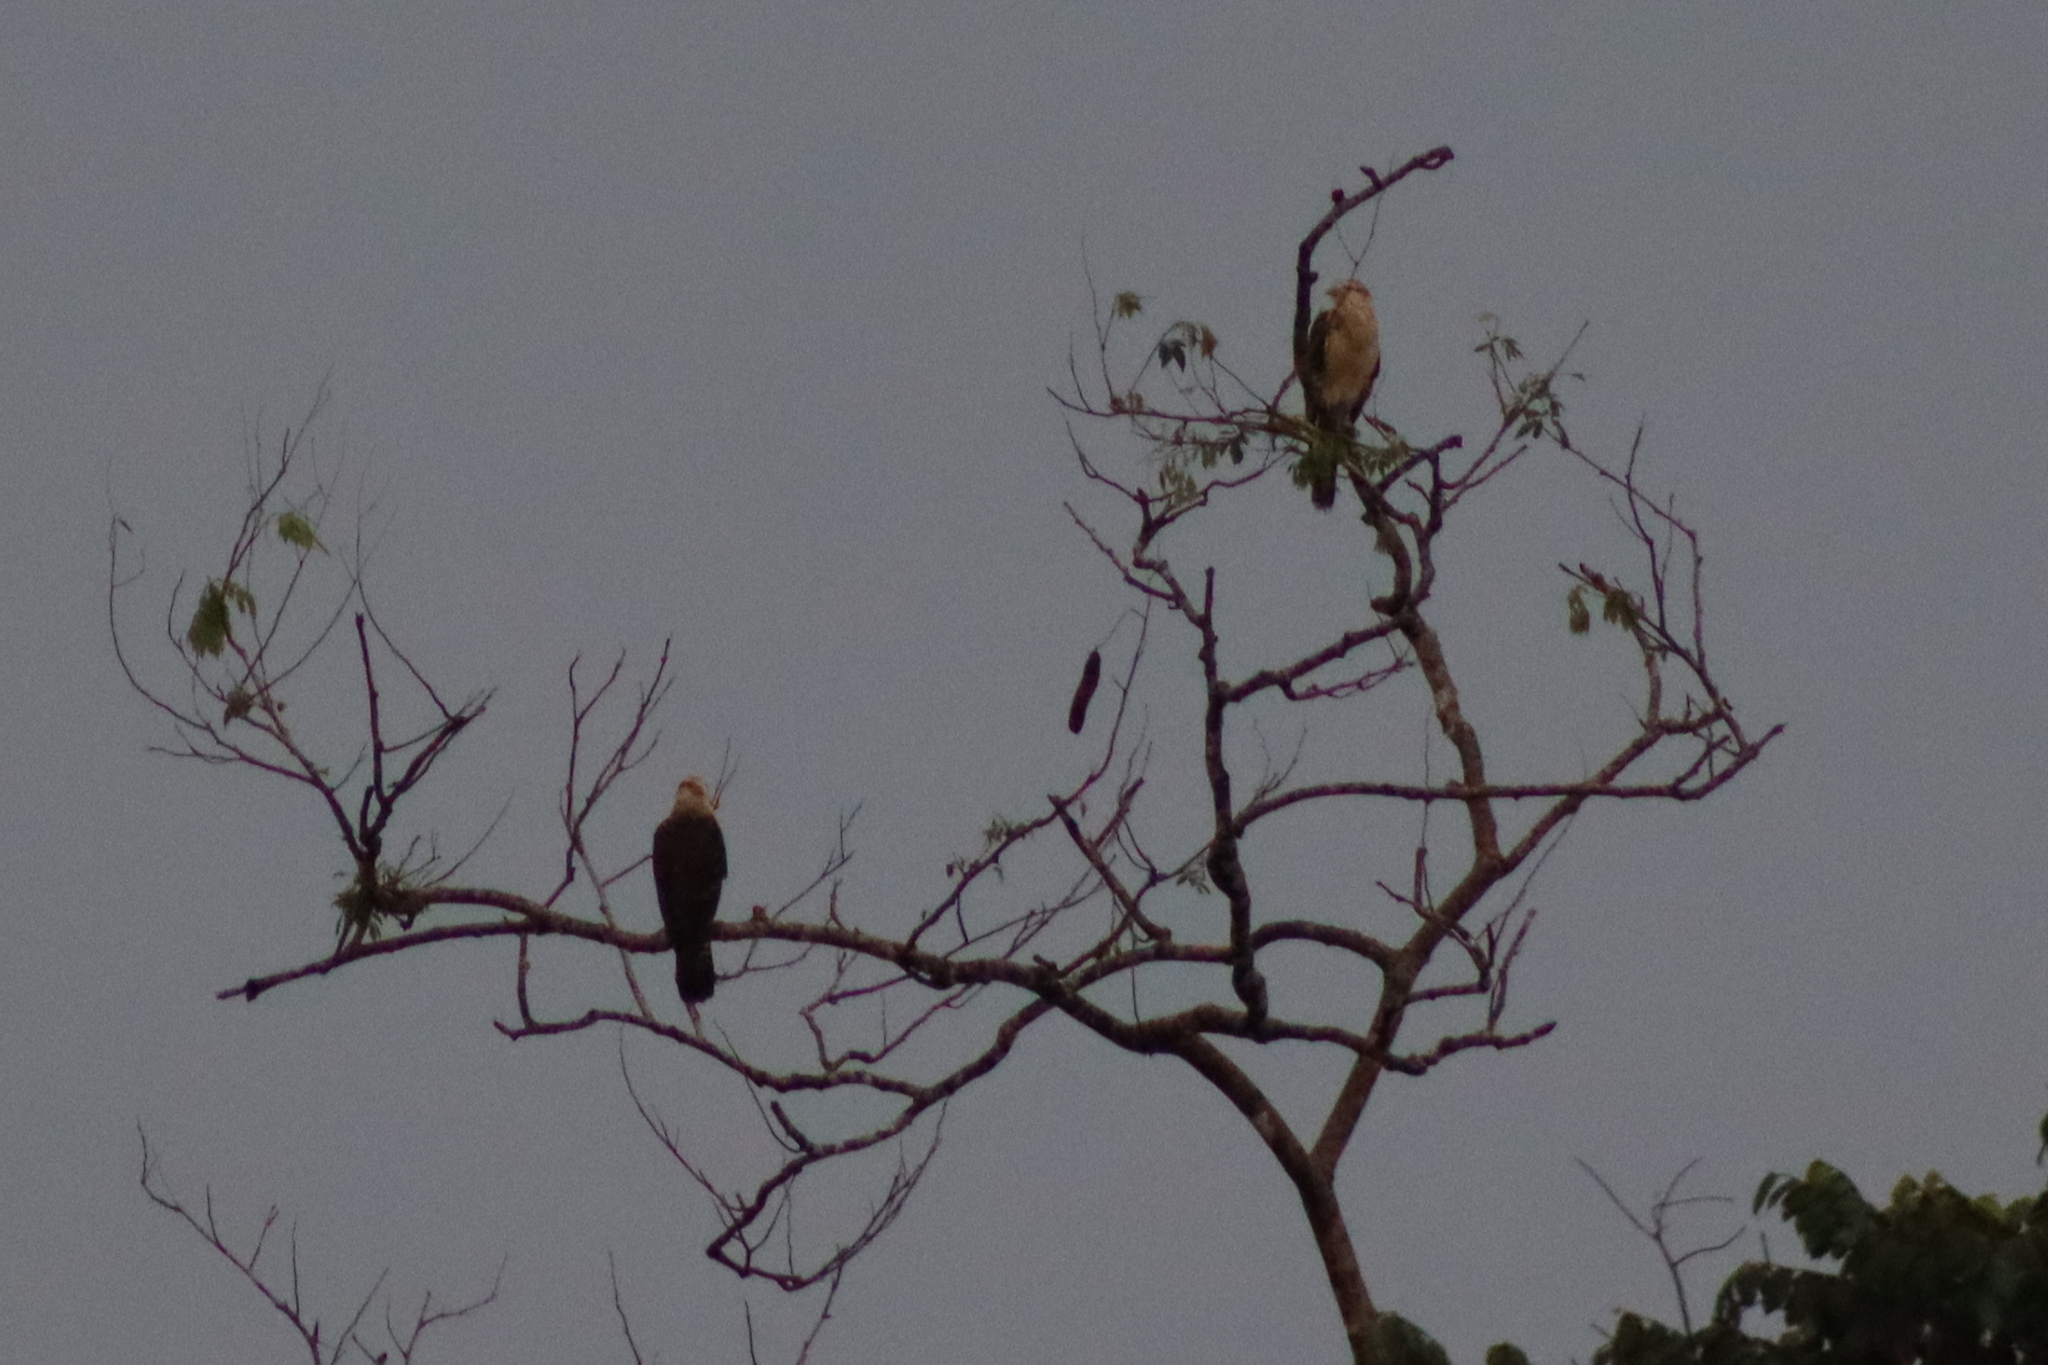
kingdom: Animalia
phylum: Chordata
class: Aves
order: Falconiformes
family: Falconidae
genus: Daptrius
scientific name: Daptrius
